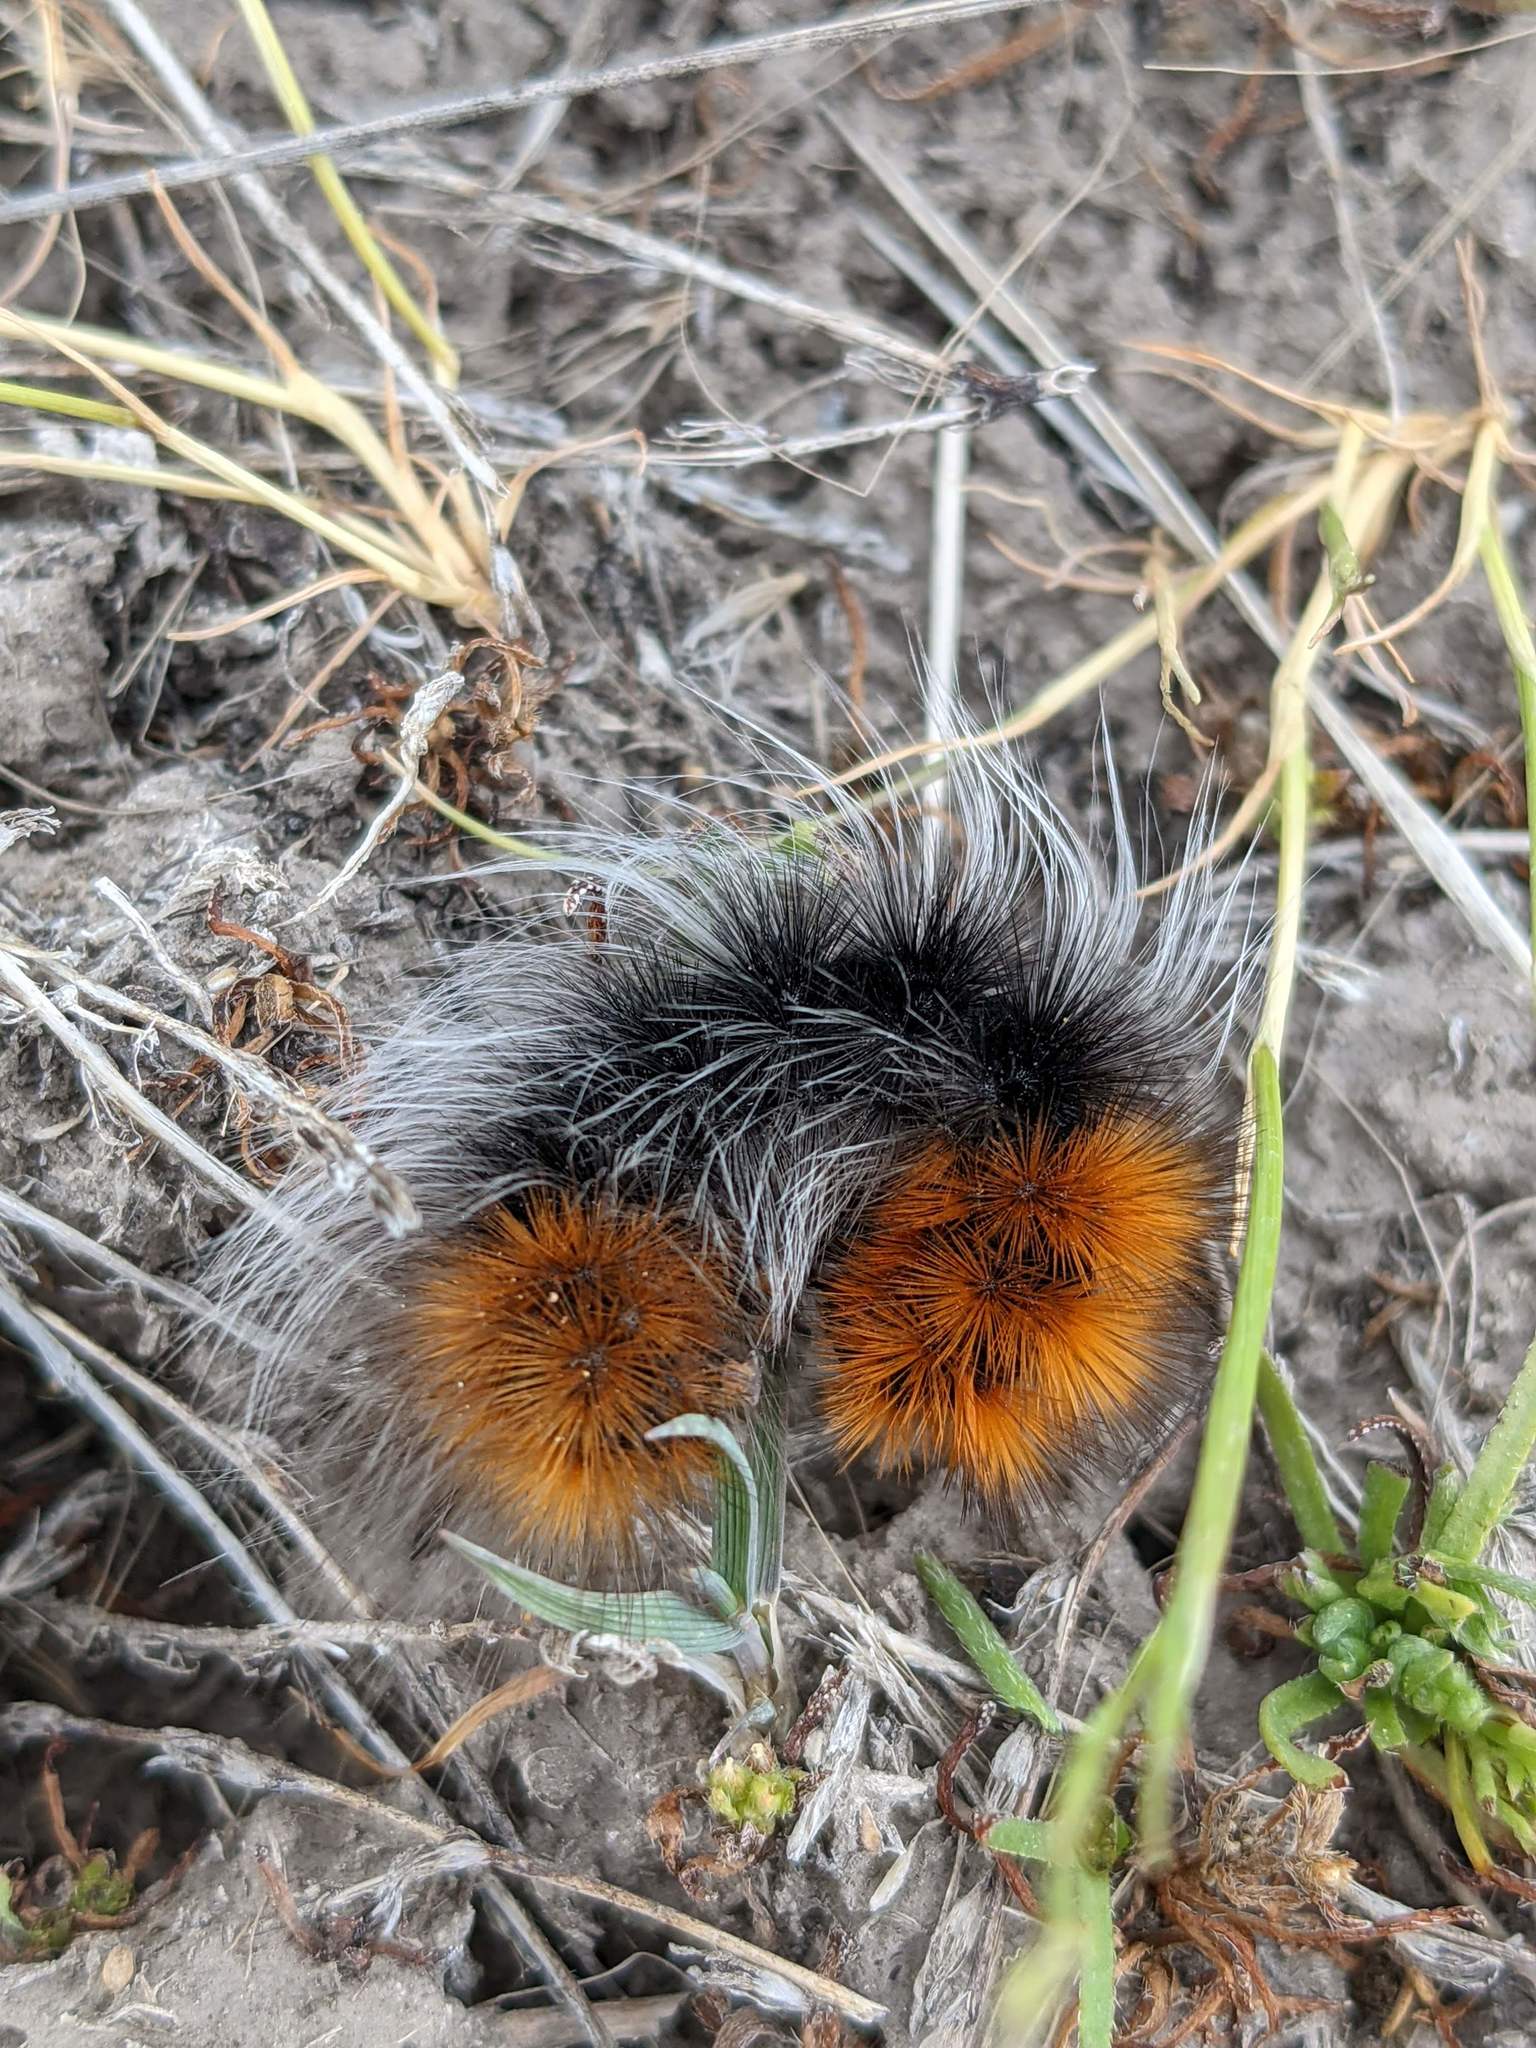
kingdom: Animalia
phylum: Arthropoda
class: Insecta
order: Lepidoptera
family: Erebidae
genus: Arctia
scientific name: Arctia tigrina
